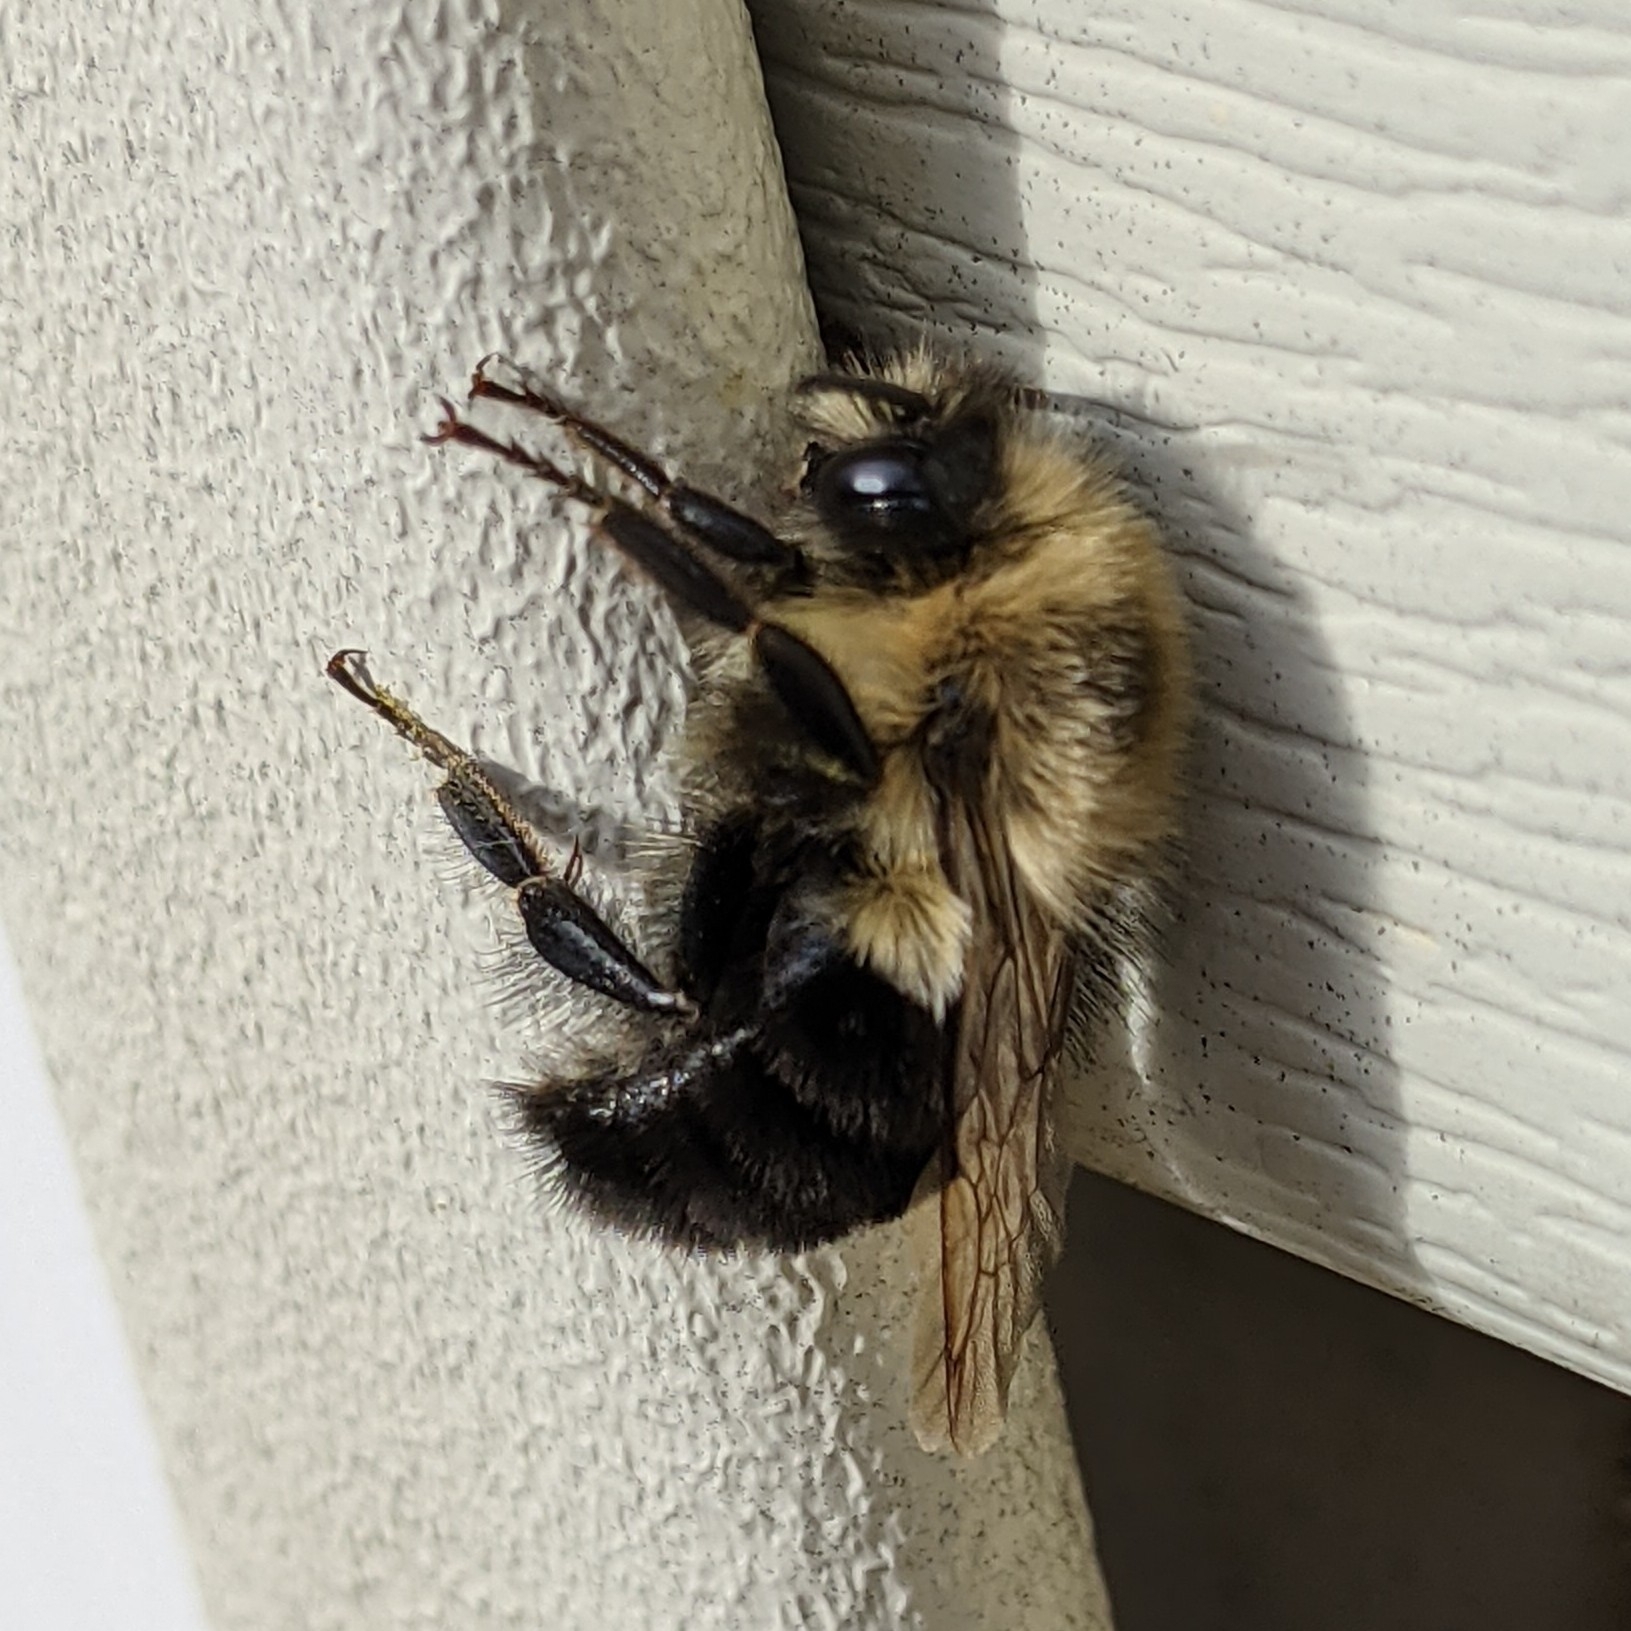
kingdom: Animalia
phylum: Arthropoda
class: Insecta
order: Hymenoptera
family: Apidae
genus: Bombus
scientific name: Bombus impatiens
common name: Common eastern bumble bee
